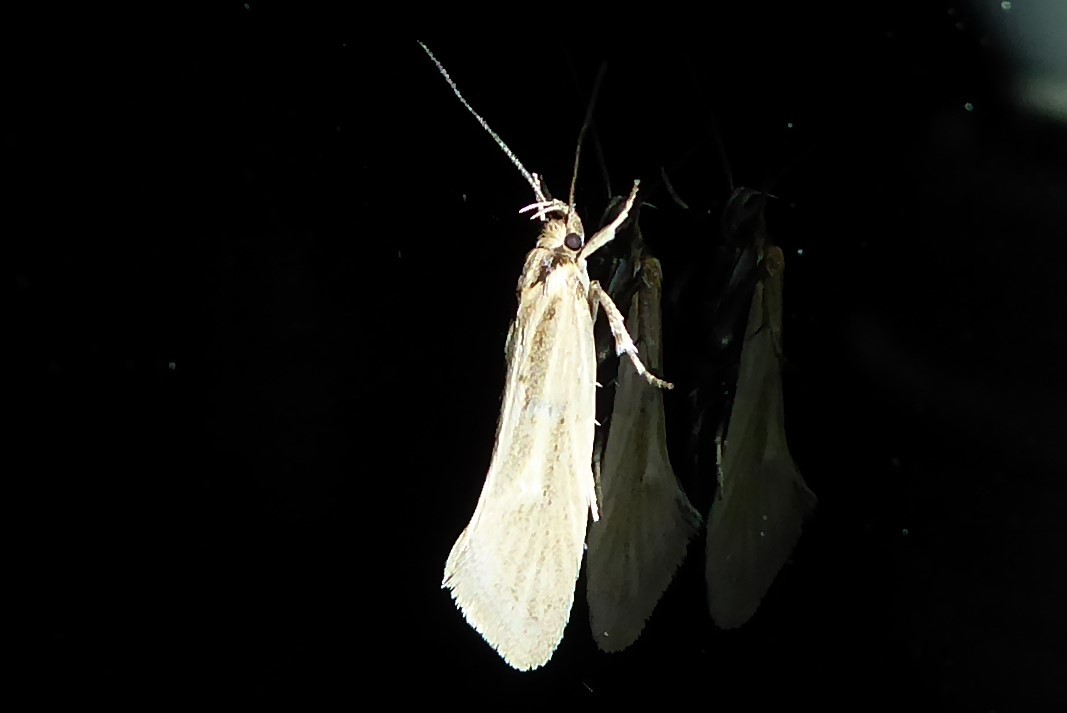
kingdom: Animalia
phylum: Arthropoda
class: Insecta
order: Lepidoptera
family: Oecophoridae
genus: Tingena
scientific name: Tingena chloradelpha
